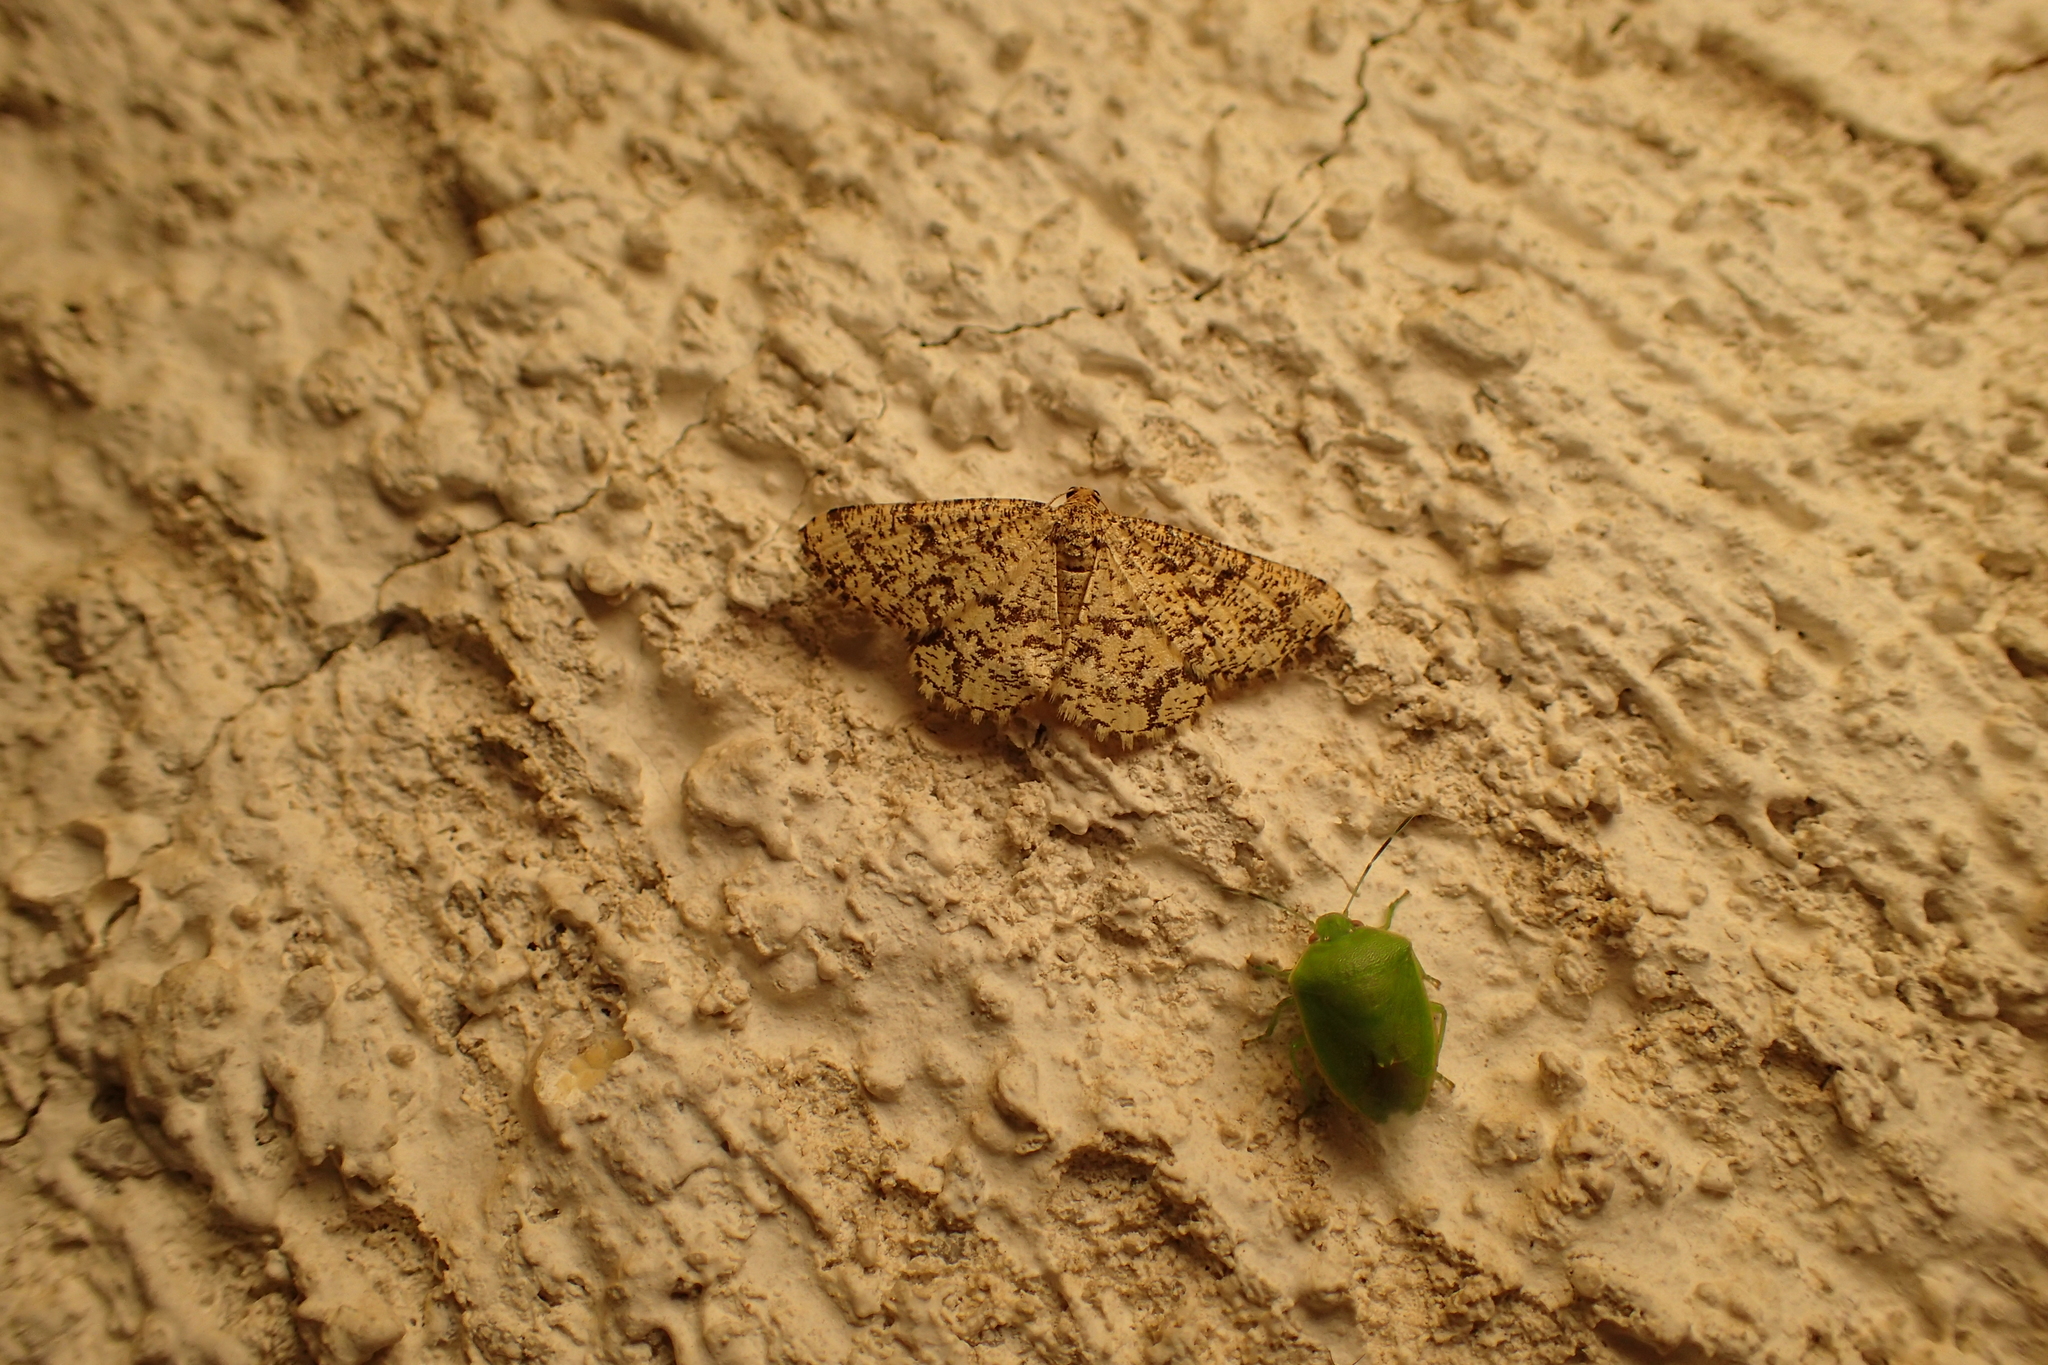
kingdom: Animalia
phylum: Arthropoda
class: Insecta
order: Lepidoptera
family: Geometridae
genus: Heliomata
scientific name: Heliomata glarearia
